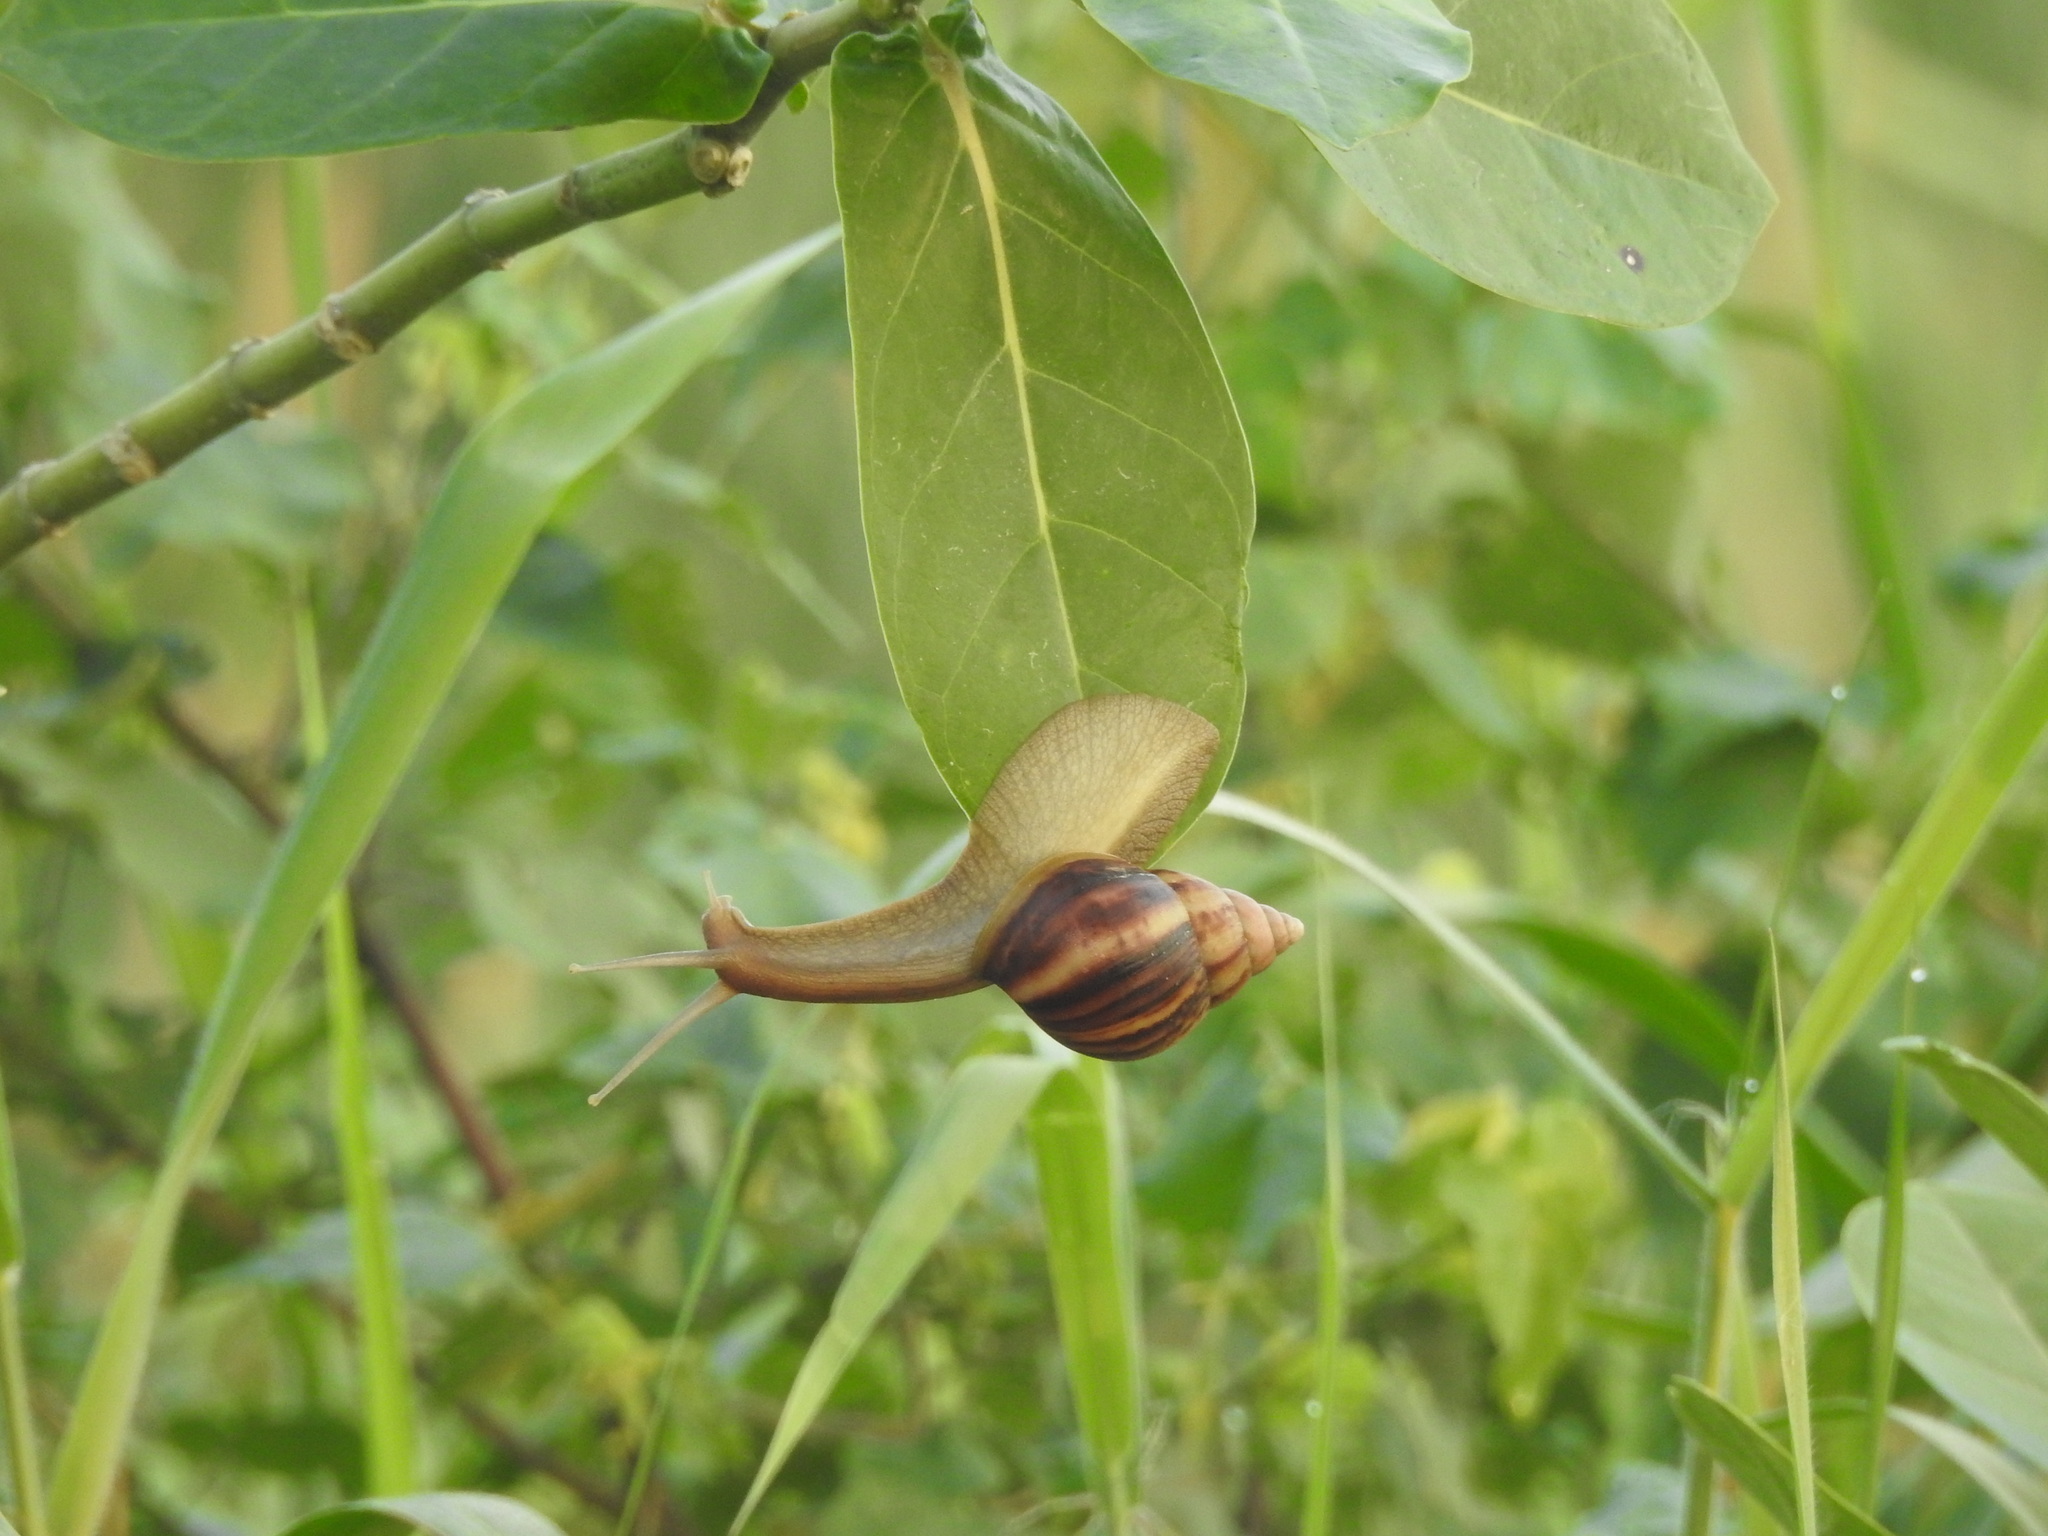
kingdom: Animalia
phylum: Mollusca
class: Gastropoda
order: Stylommatophora
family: Achatinidae
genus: Lissachatina
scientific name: Lissachatina fulica
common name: Giant african snail
